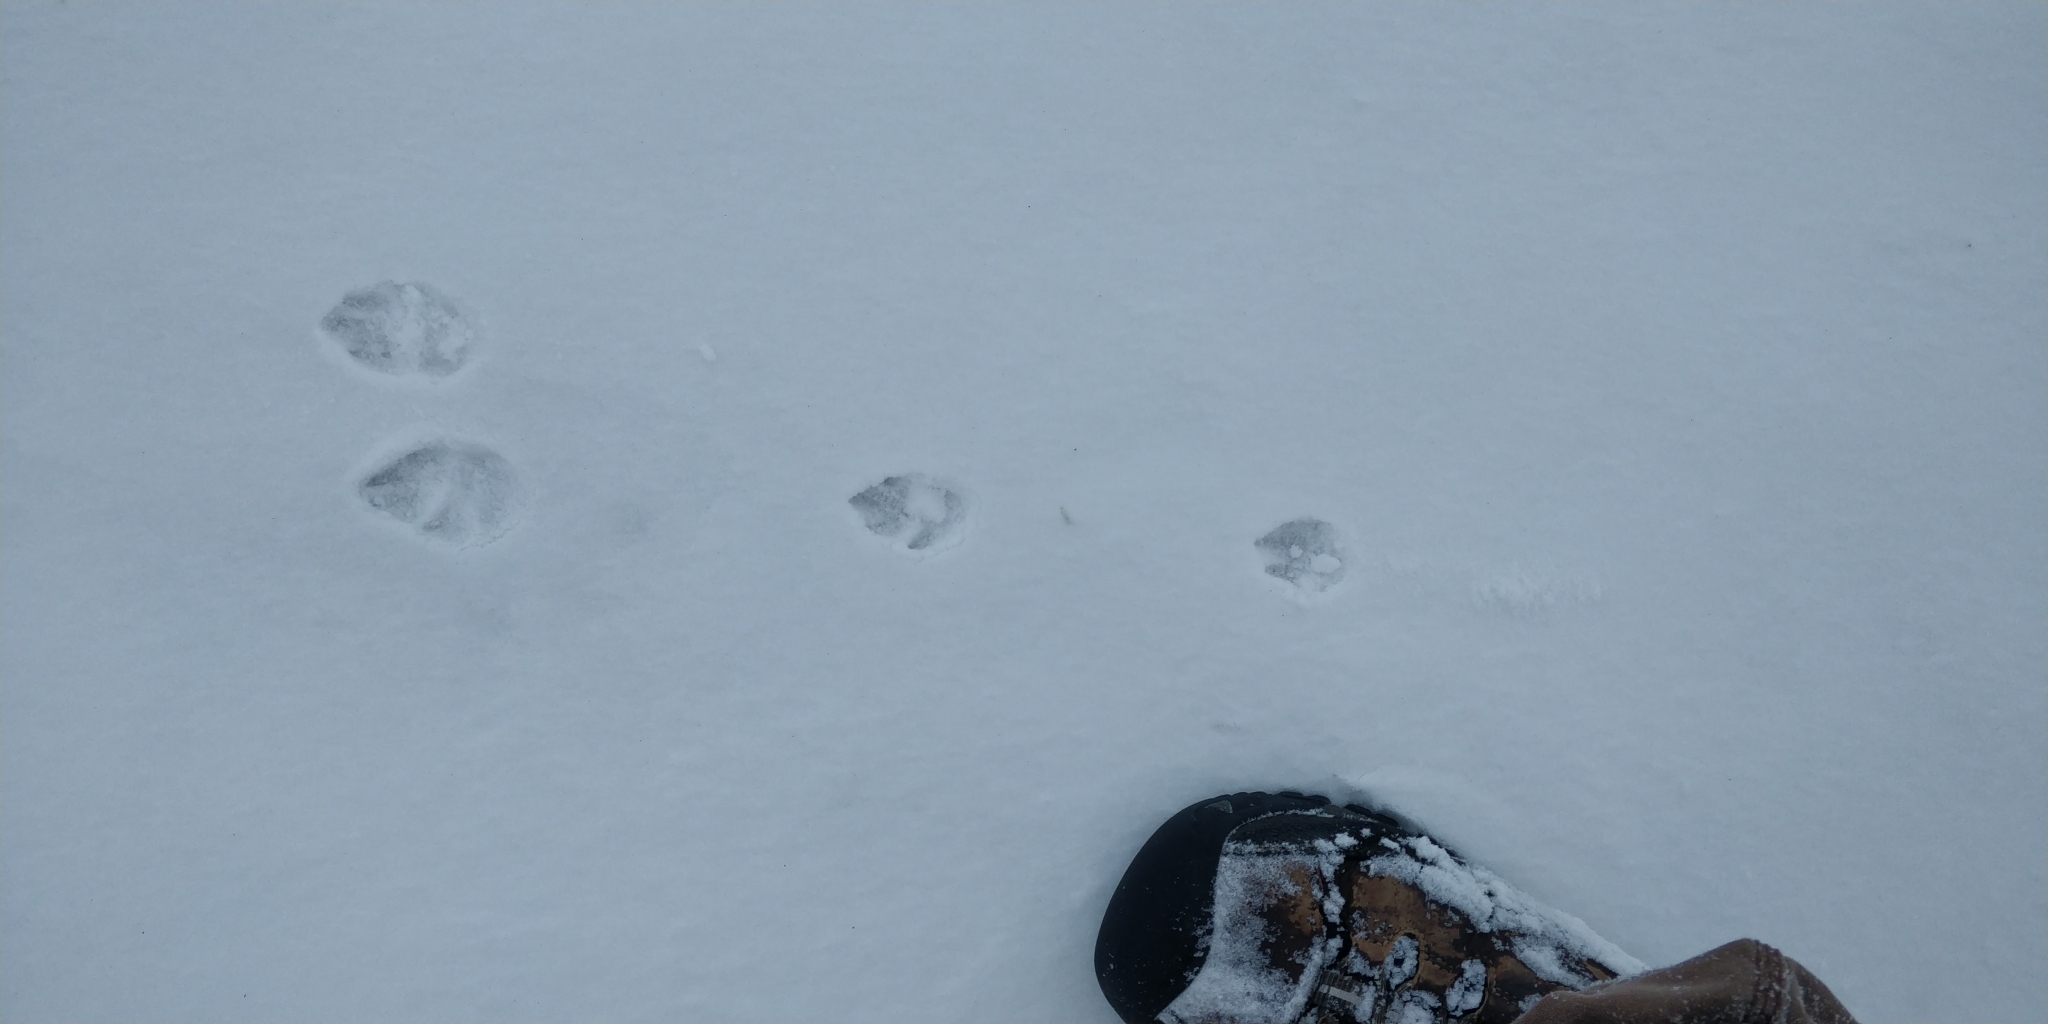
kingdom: Animalia
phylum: Chordata
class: Mammalia
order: Lagomorpha
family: Leporidae
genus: Sylvilagus
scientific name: Sylvilagus floridanus
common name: Eastern cottontail
